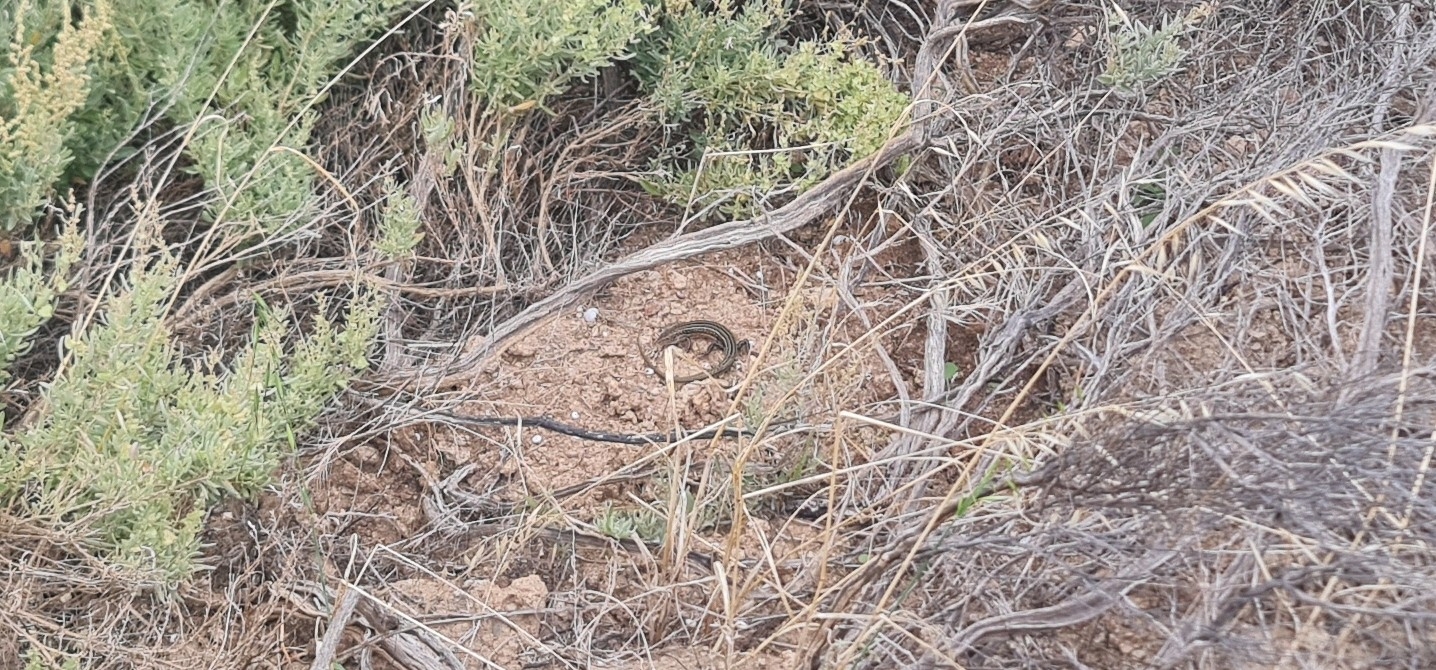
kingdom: Animalia
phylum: Chordata
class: Squamata
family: Scincidae
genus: Ctenotus
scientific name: Ctenotus robustus
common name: Robust ctenotus
